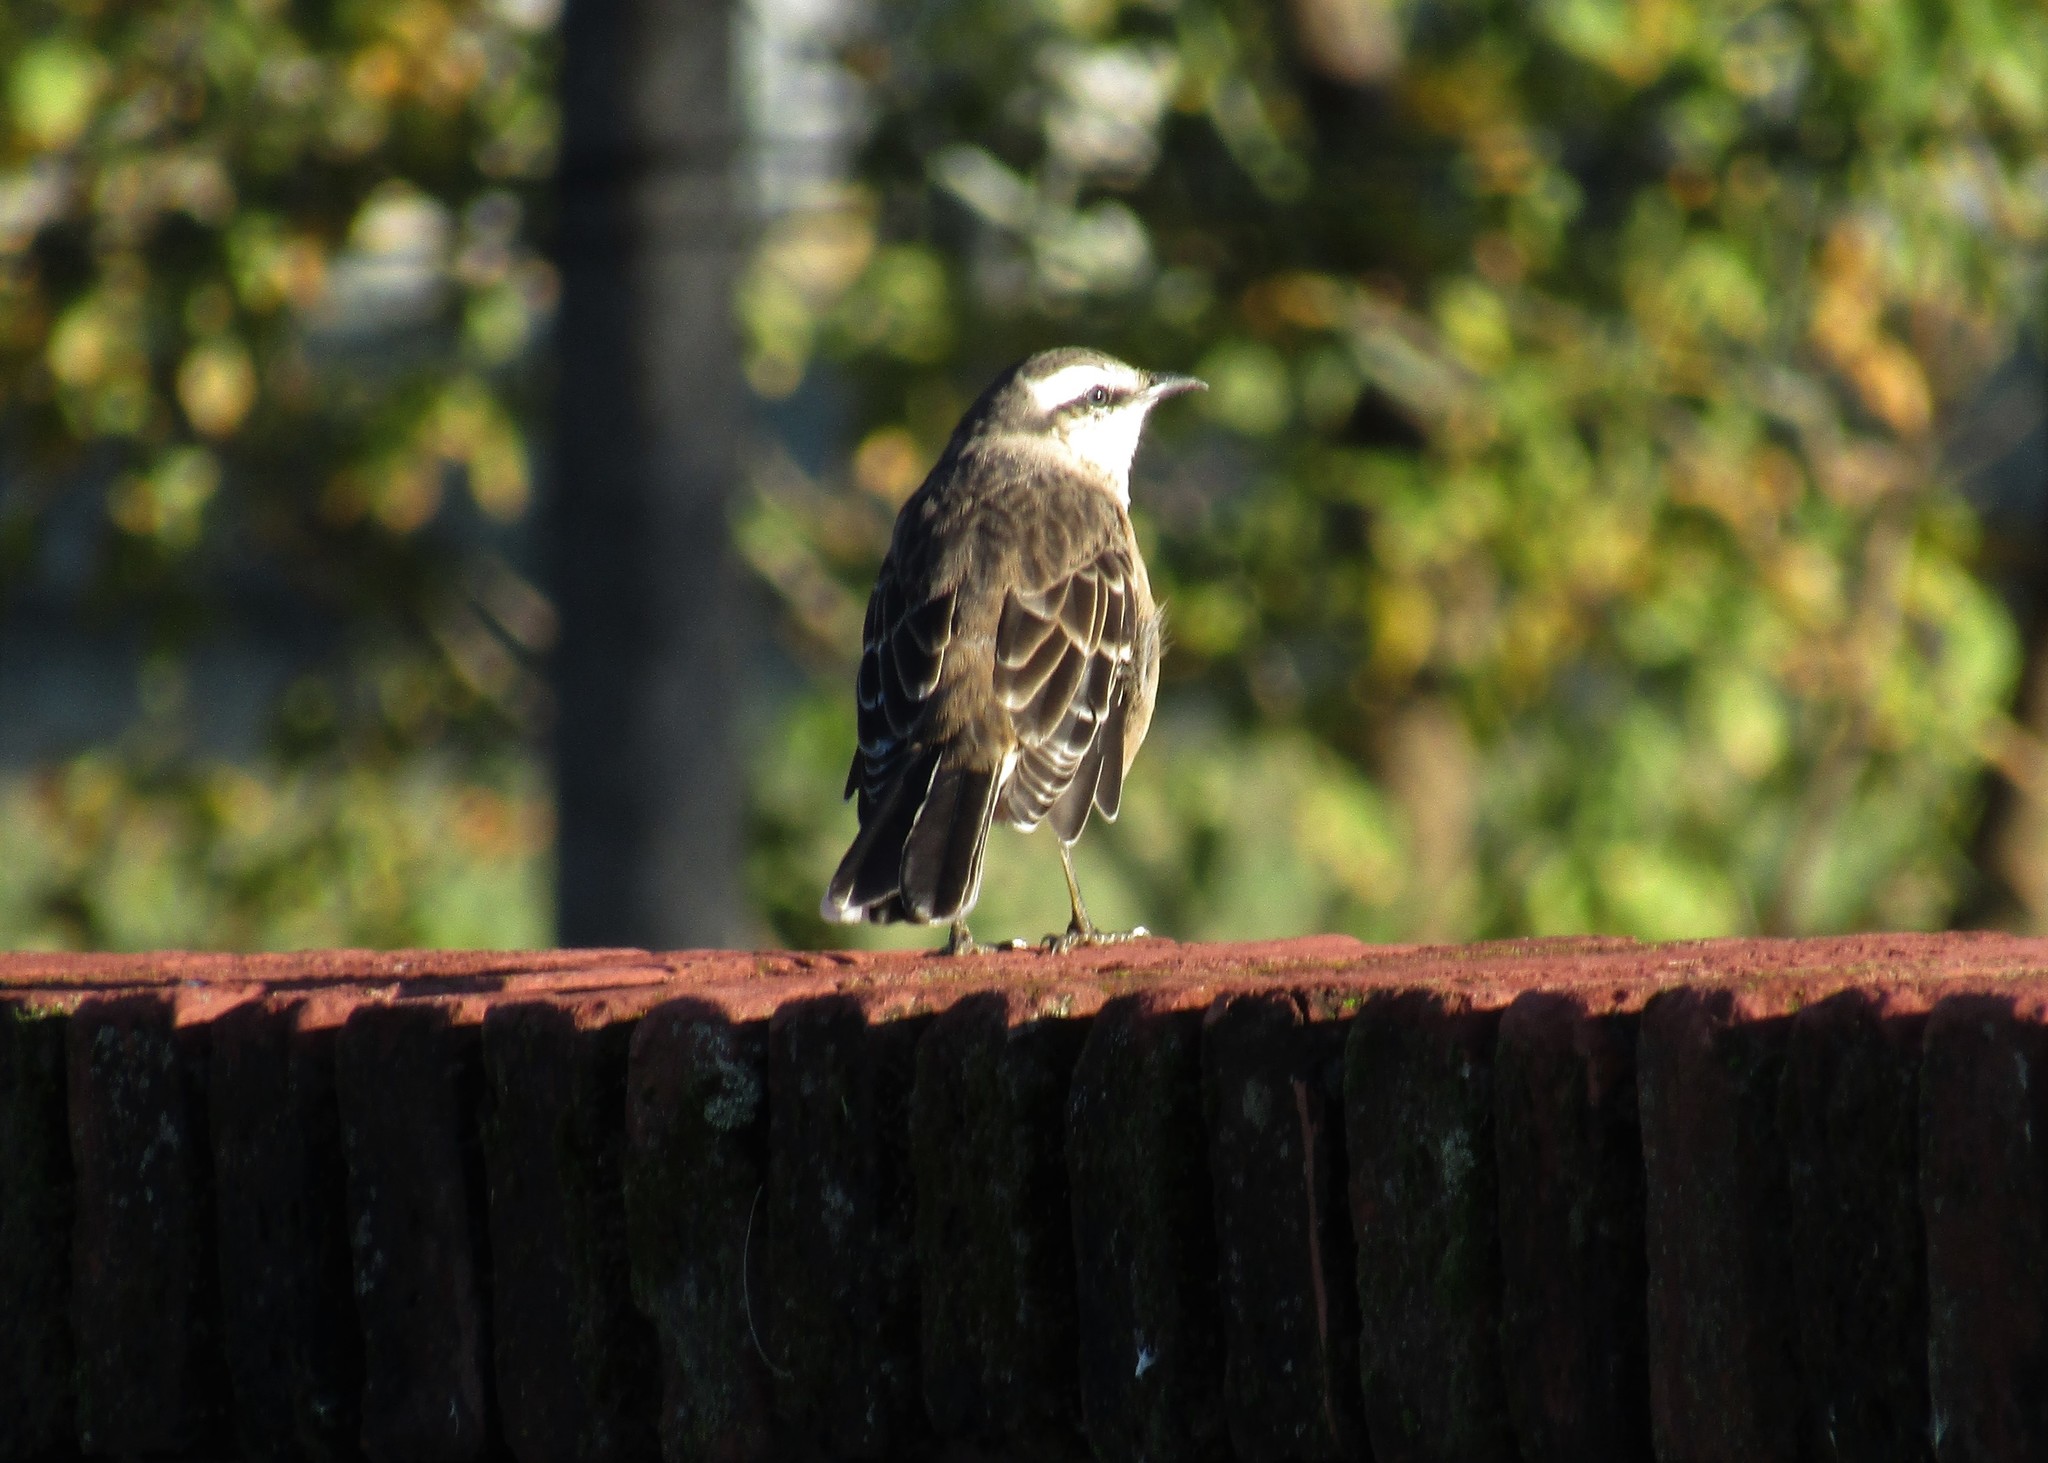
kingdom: Animalia
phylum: Chordata
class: Aves
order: Passeriformes
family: Mimidae
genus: Mimus
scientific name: Mimus saturninus
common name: Chalk-browed mockingbird
